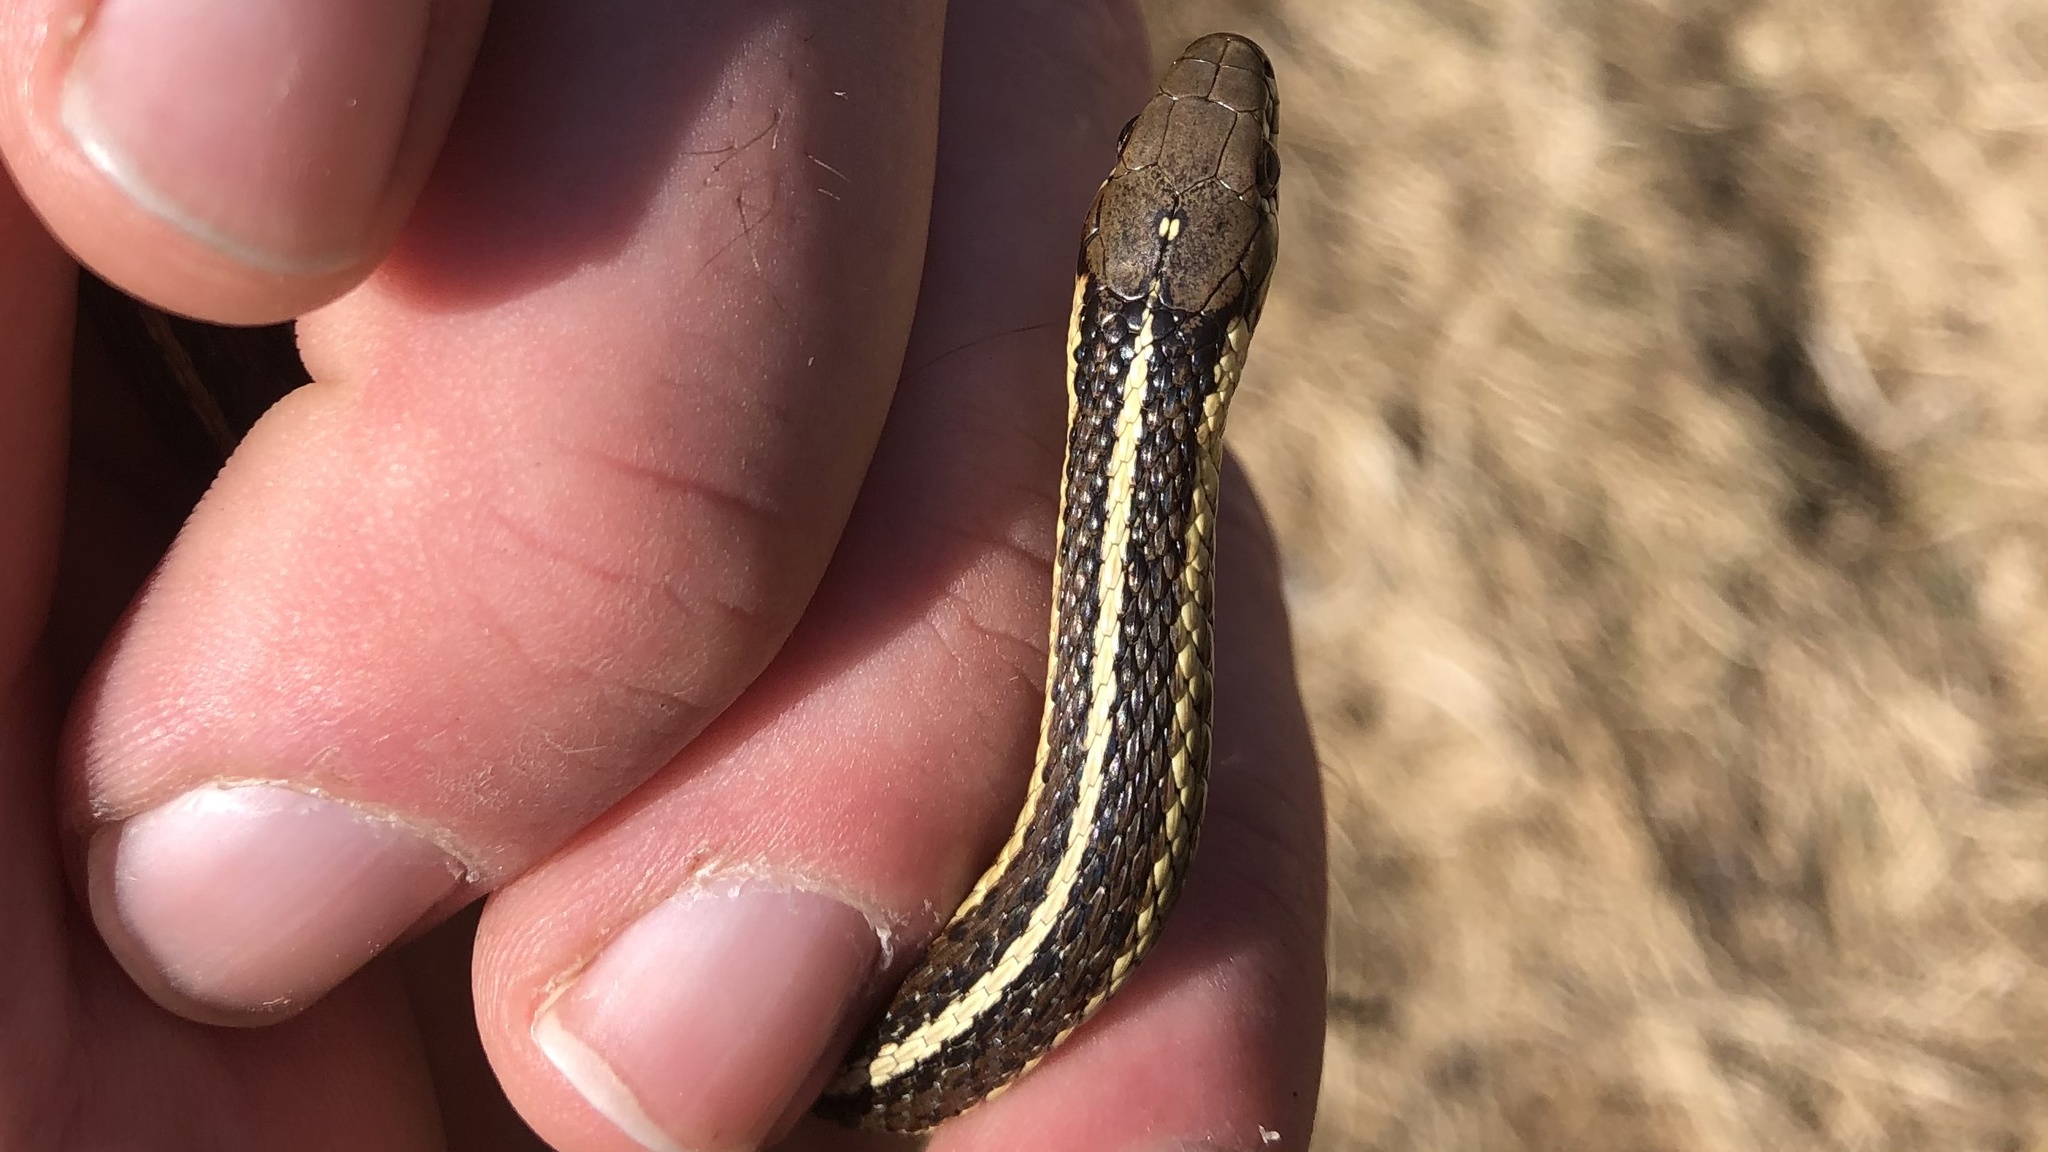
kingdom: Animalia
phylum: Chordata
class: Squamata
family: Colubridae
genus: Thamnophis
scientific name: Thamnophis butleri
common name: Butler's garter snake
